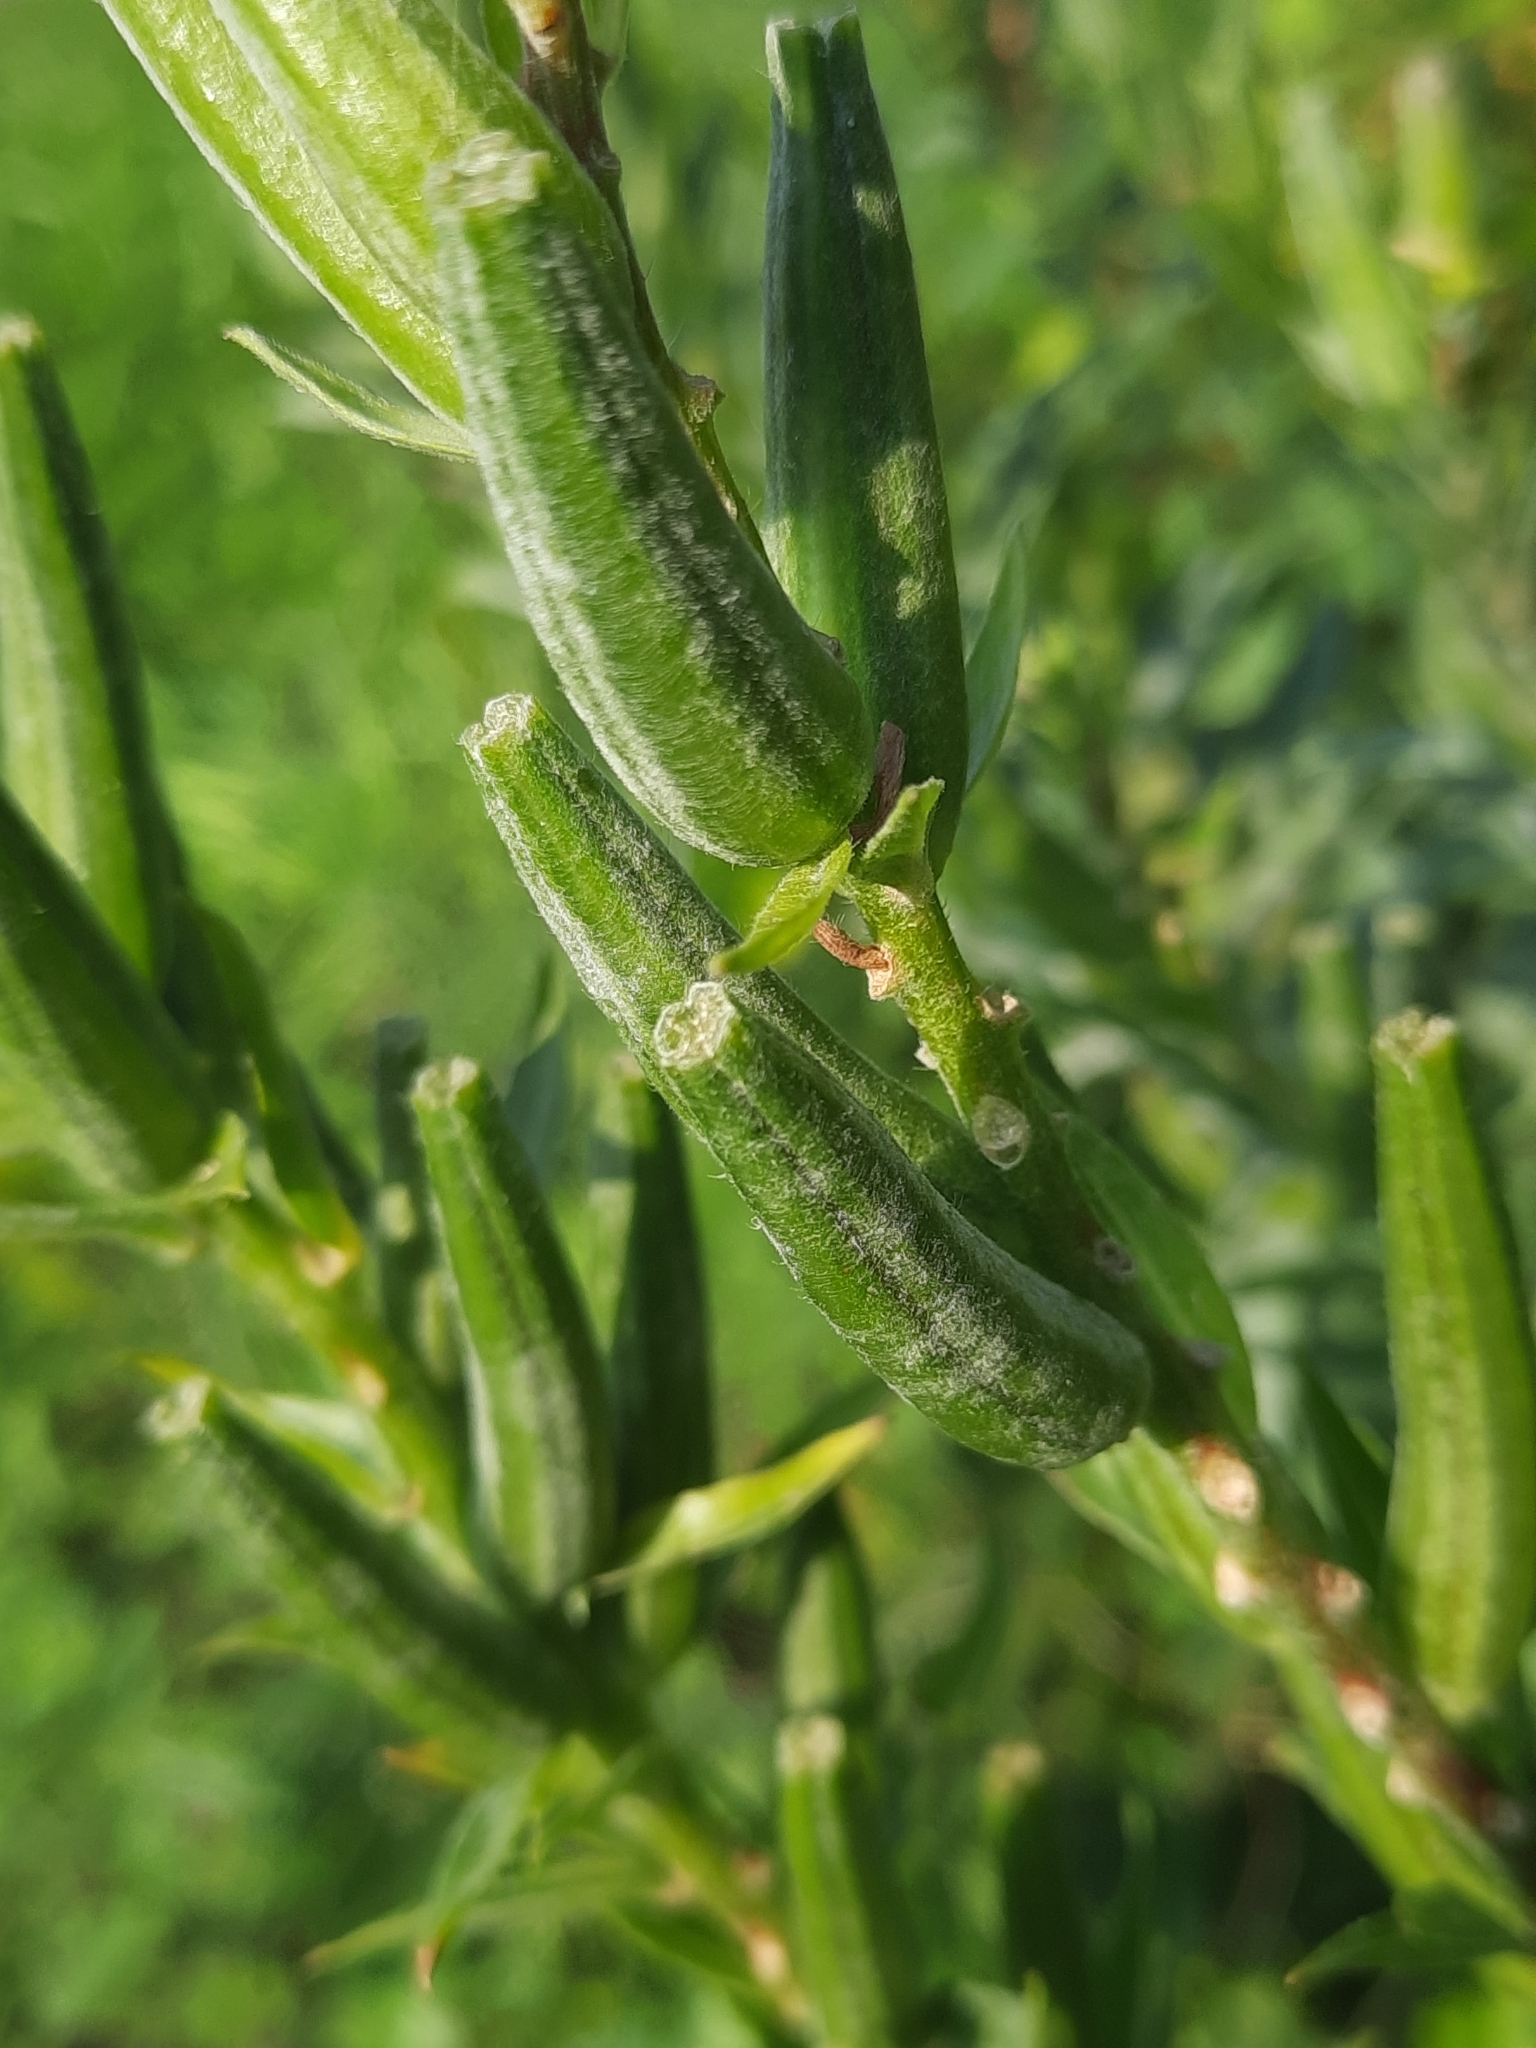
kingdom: Plantae
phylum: Tracheophyta
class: Magnoliopsida
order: Myrtales
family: Onagraceae
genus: Oenothera
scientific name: Oenothera biennis
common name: Common evening-primrose
